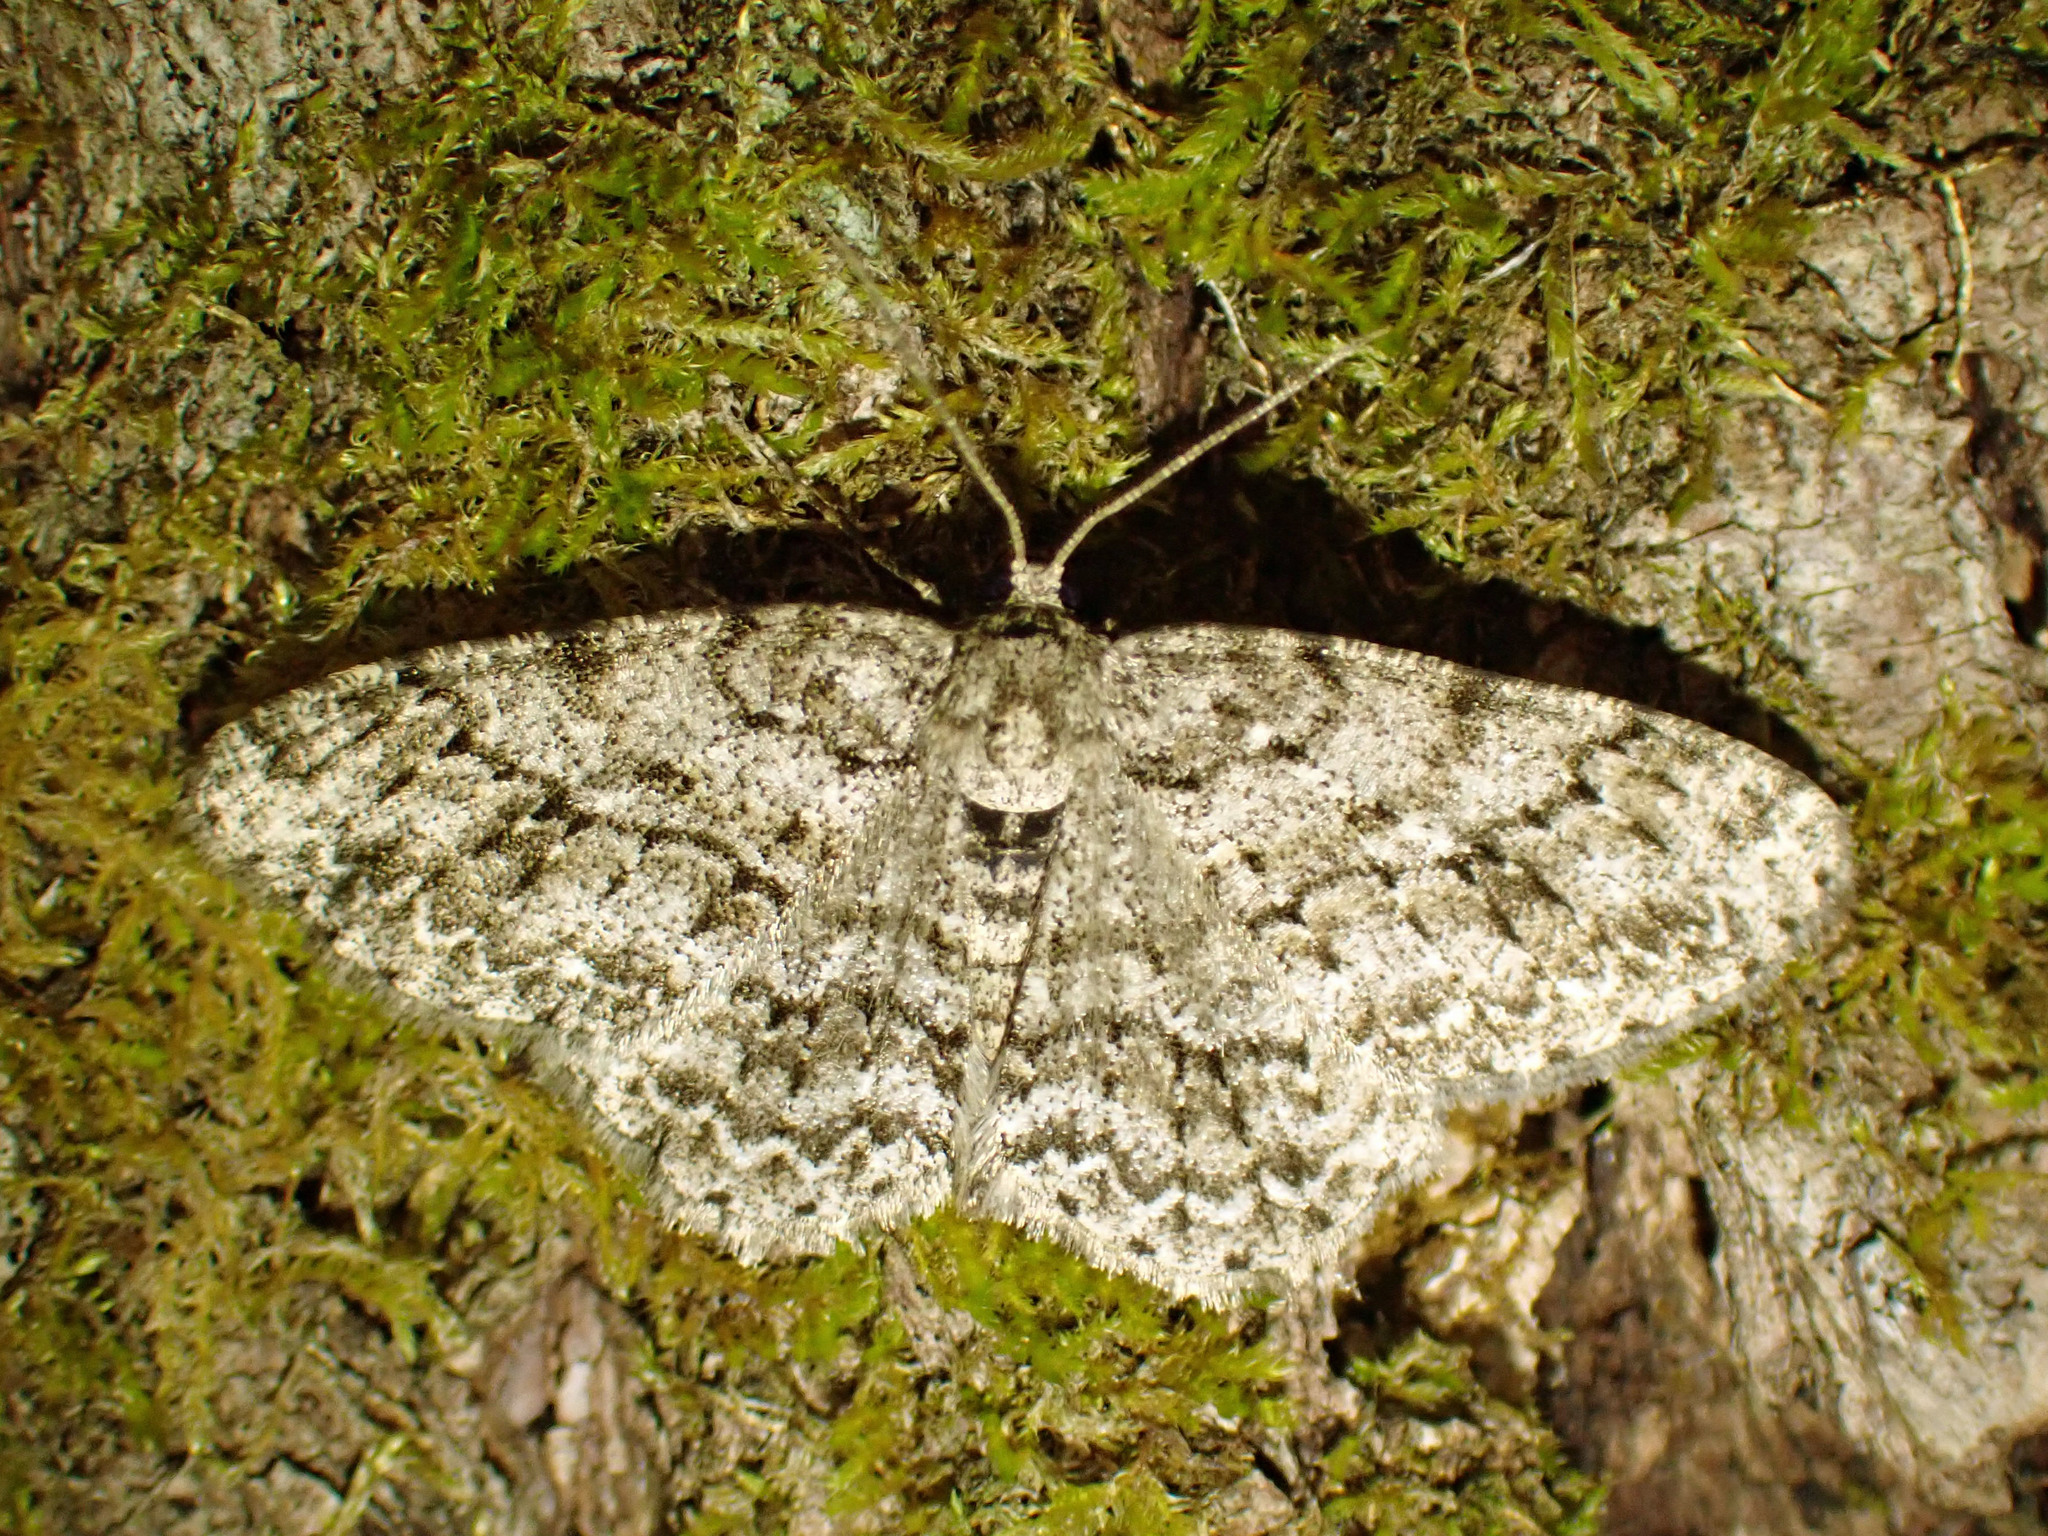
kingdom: Animalia
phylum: Arthropoda
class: Insecta
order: Lepidoptera
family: Geometridae
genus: Ectropis
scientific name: Ectropis crepuscularia
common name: Engrailed
